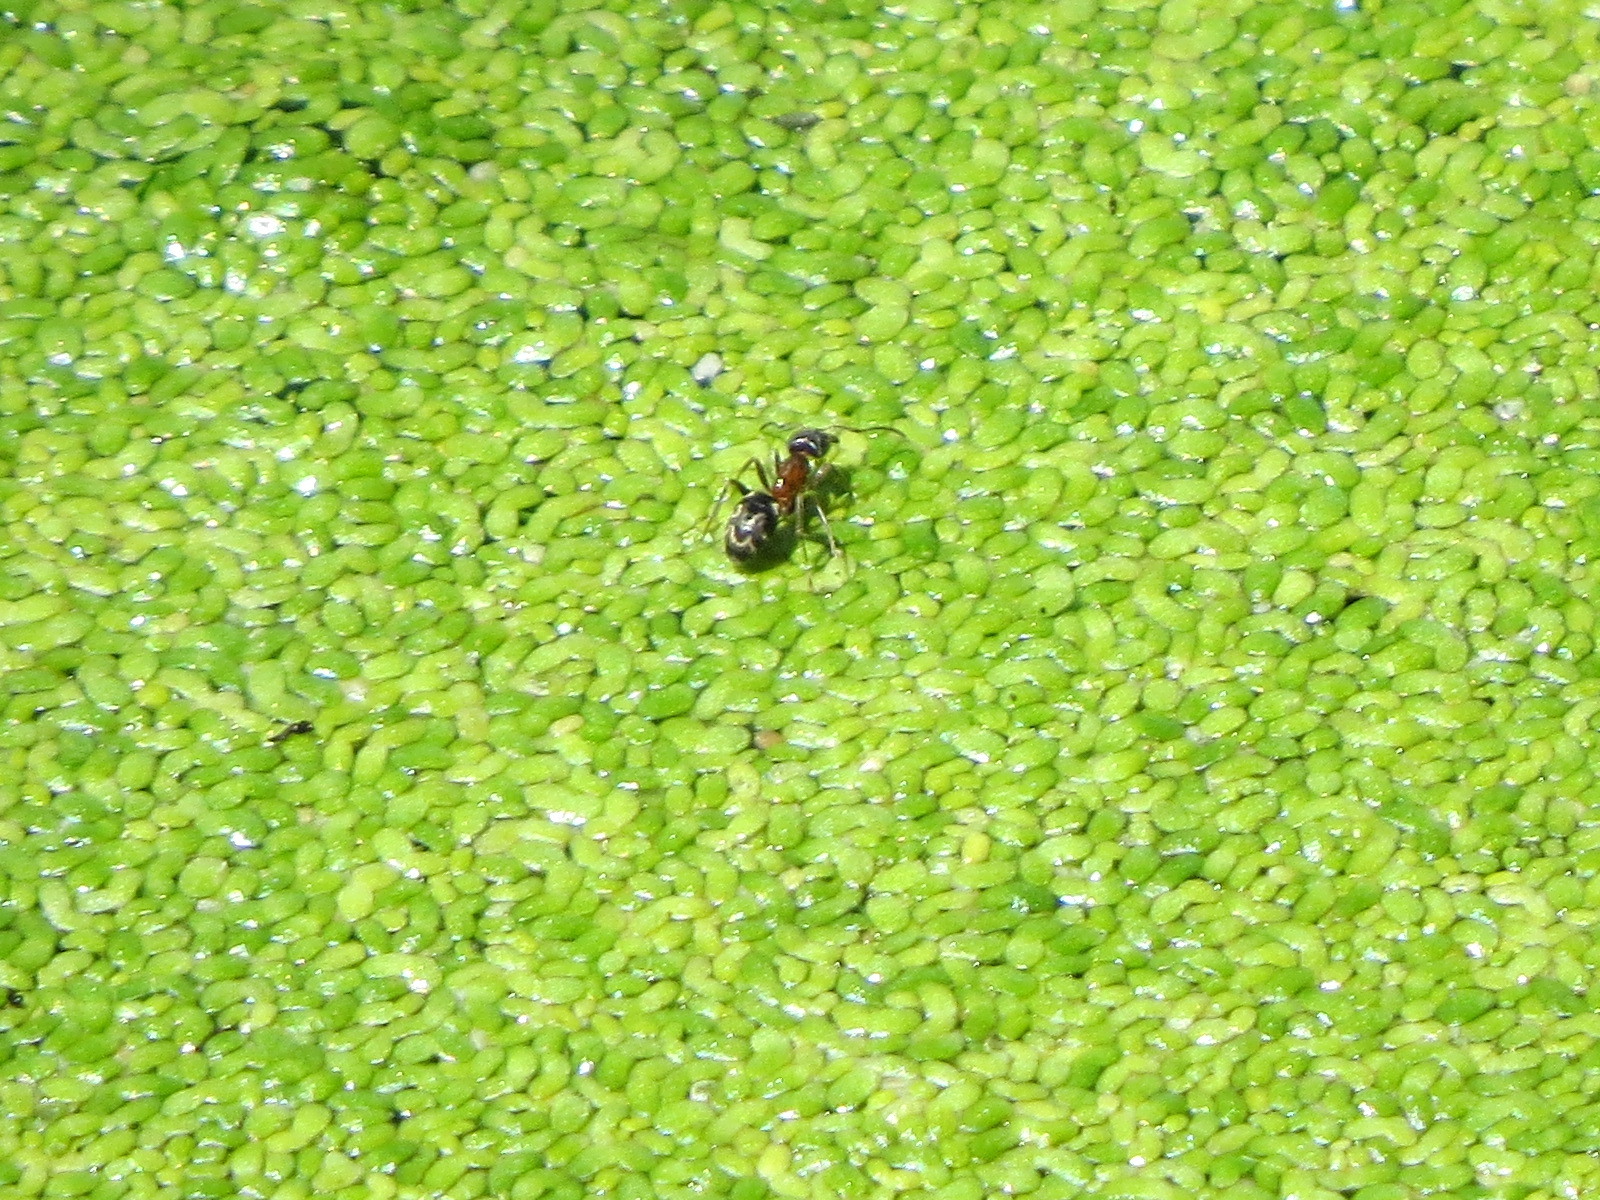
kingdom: Animalia
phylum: Arthropoda
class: Insecta
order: Hymenoptera
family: Formicidae
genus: Liometopum
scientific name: Liometopum occidentale
